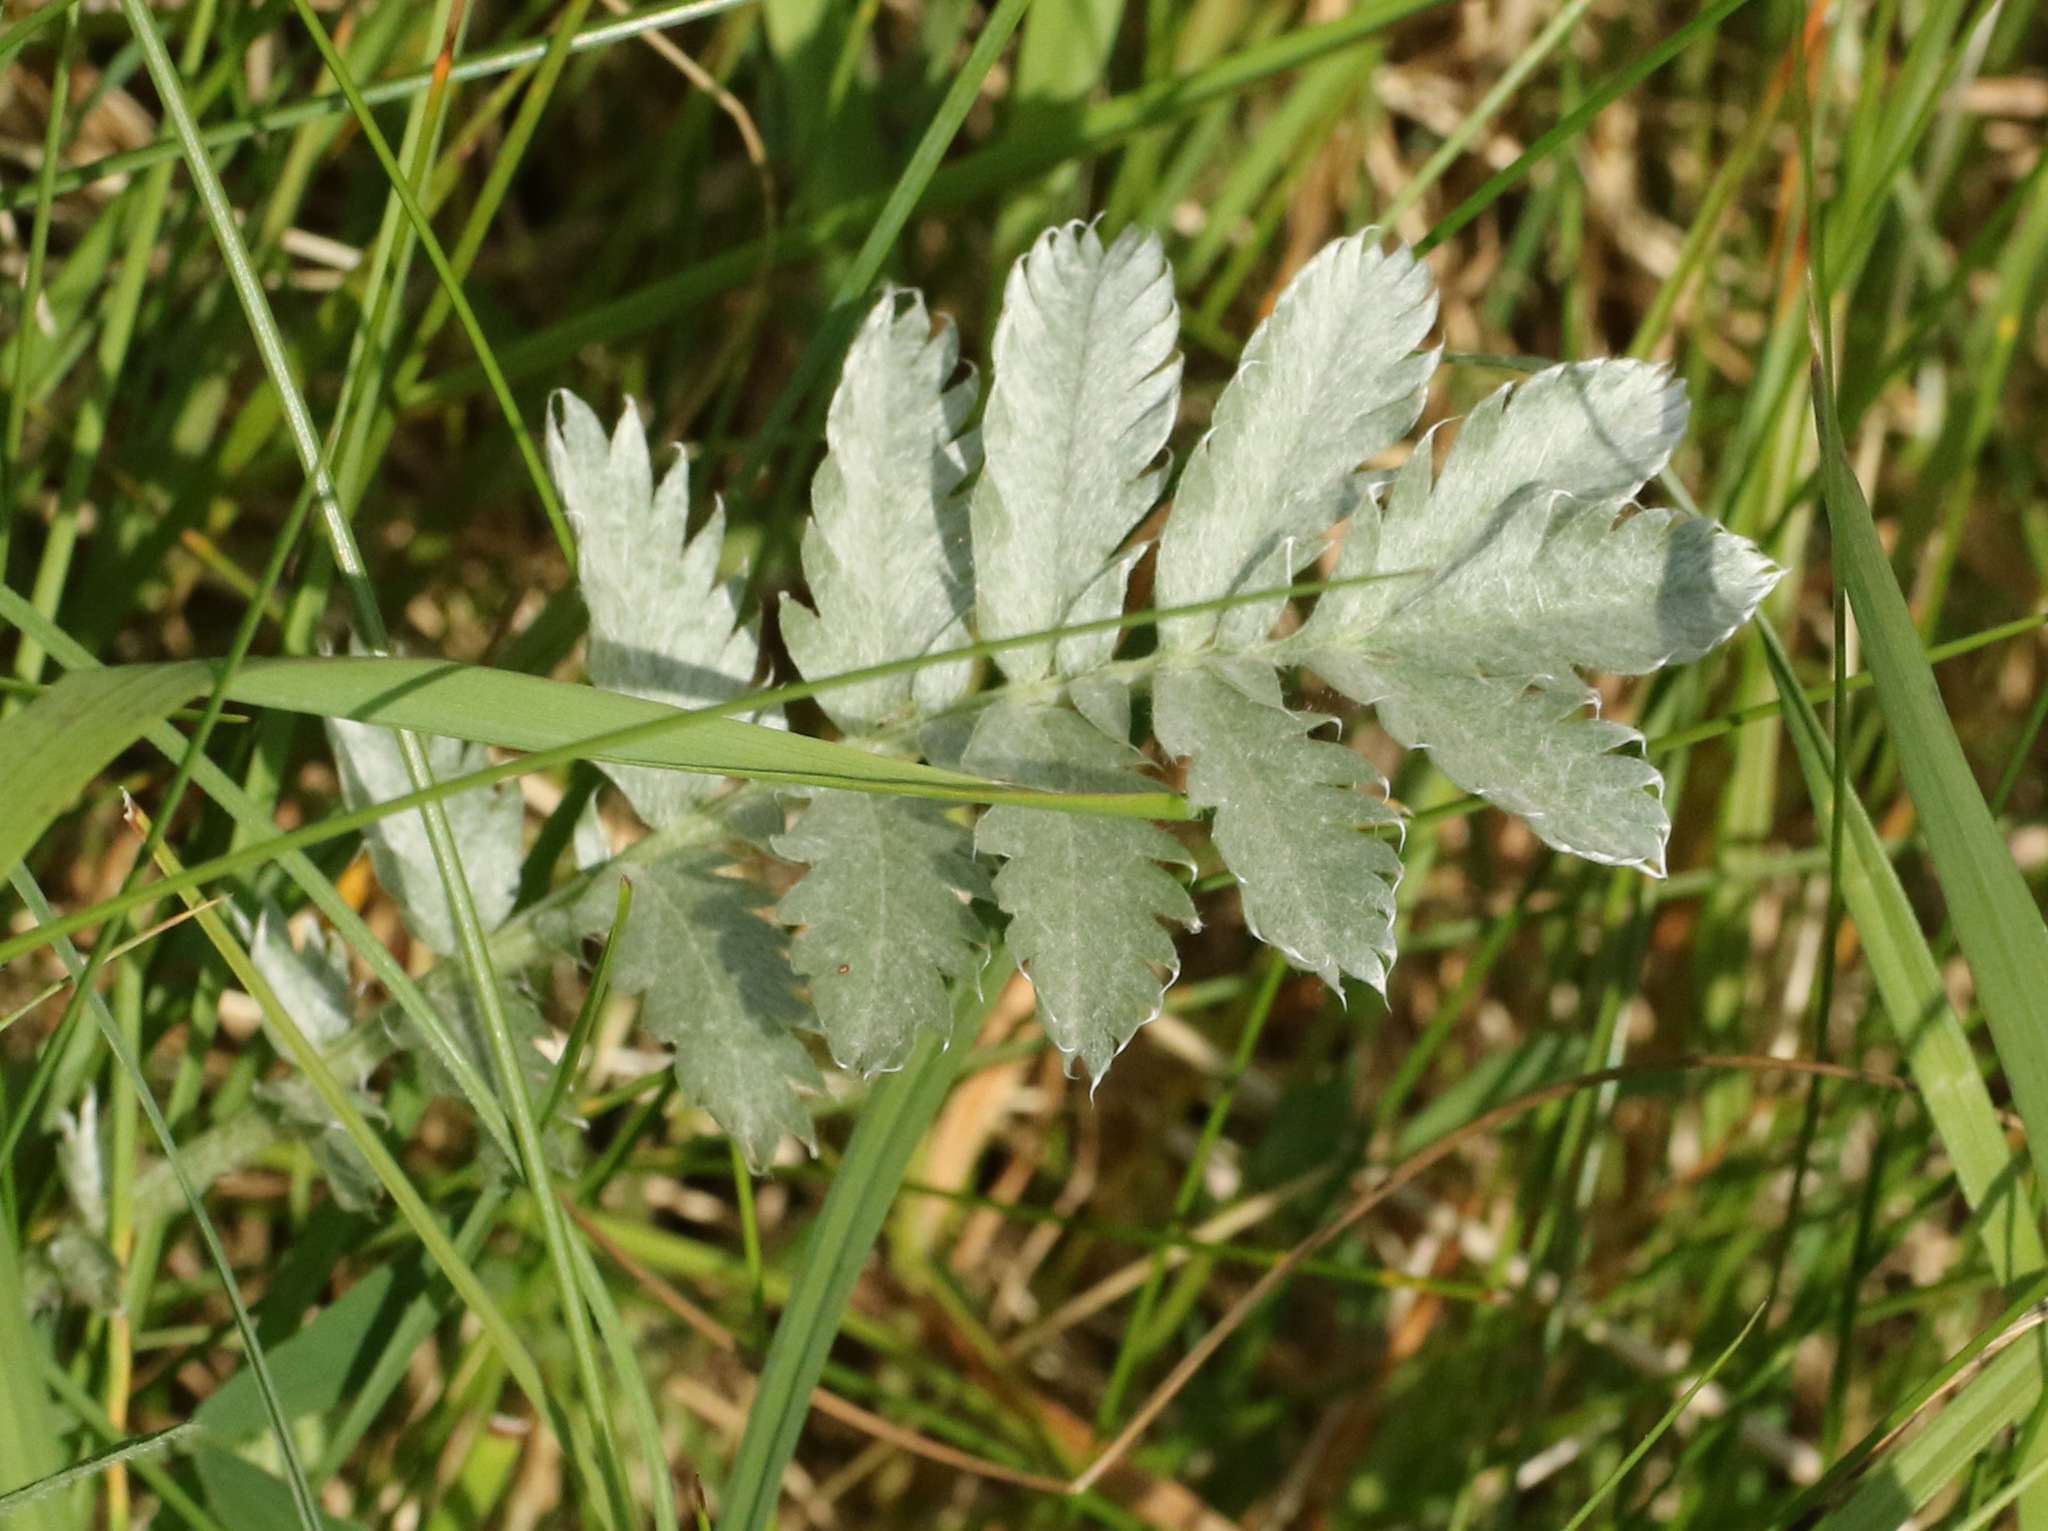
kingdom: Plantae
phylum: Tracheophyta
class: Magnoliopsida
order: Rosales
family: Rosaceae
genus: Argentina
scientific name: Argentina anserina
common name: Common silverweed
